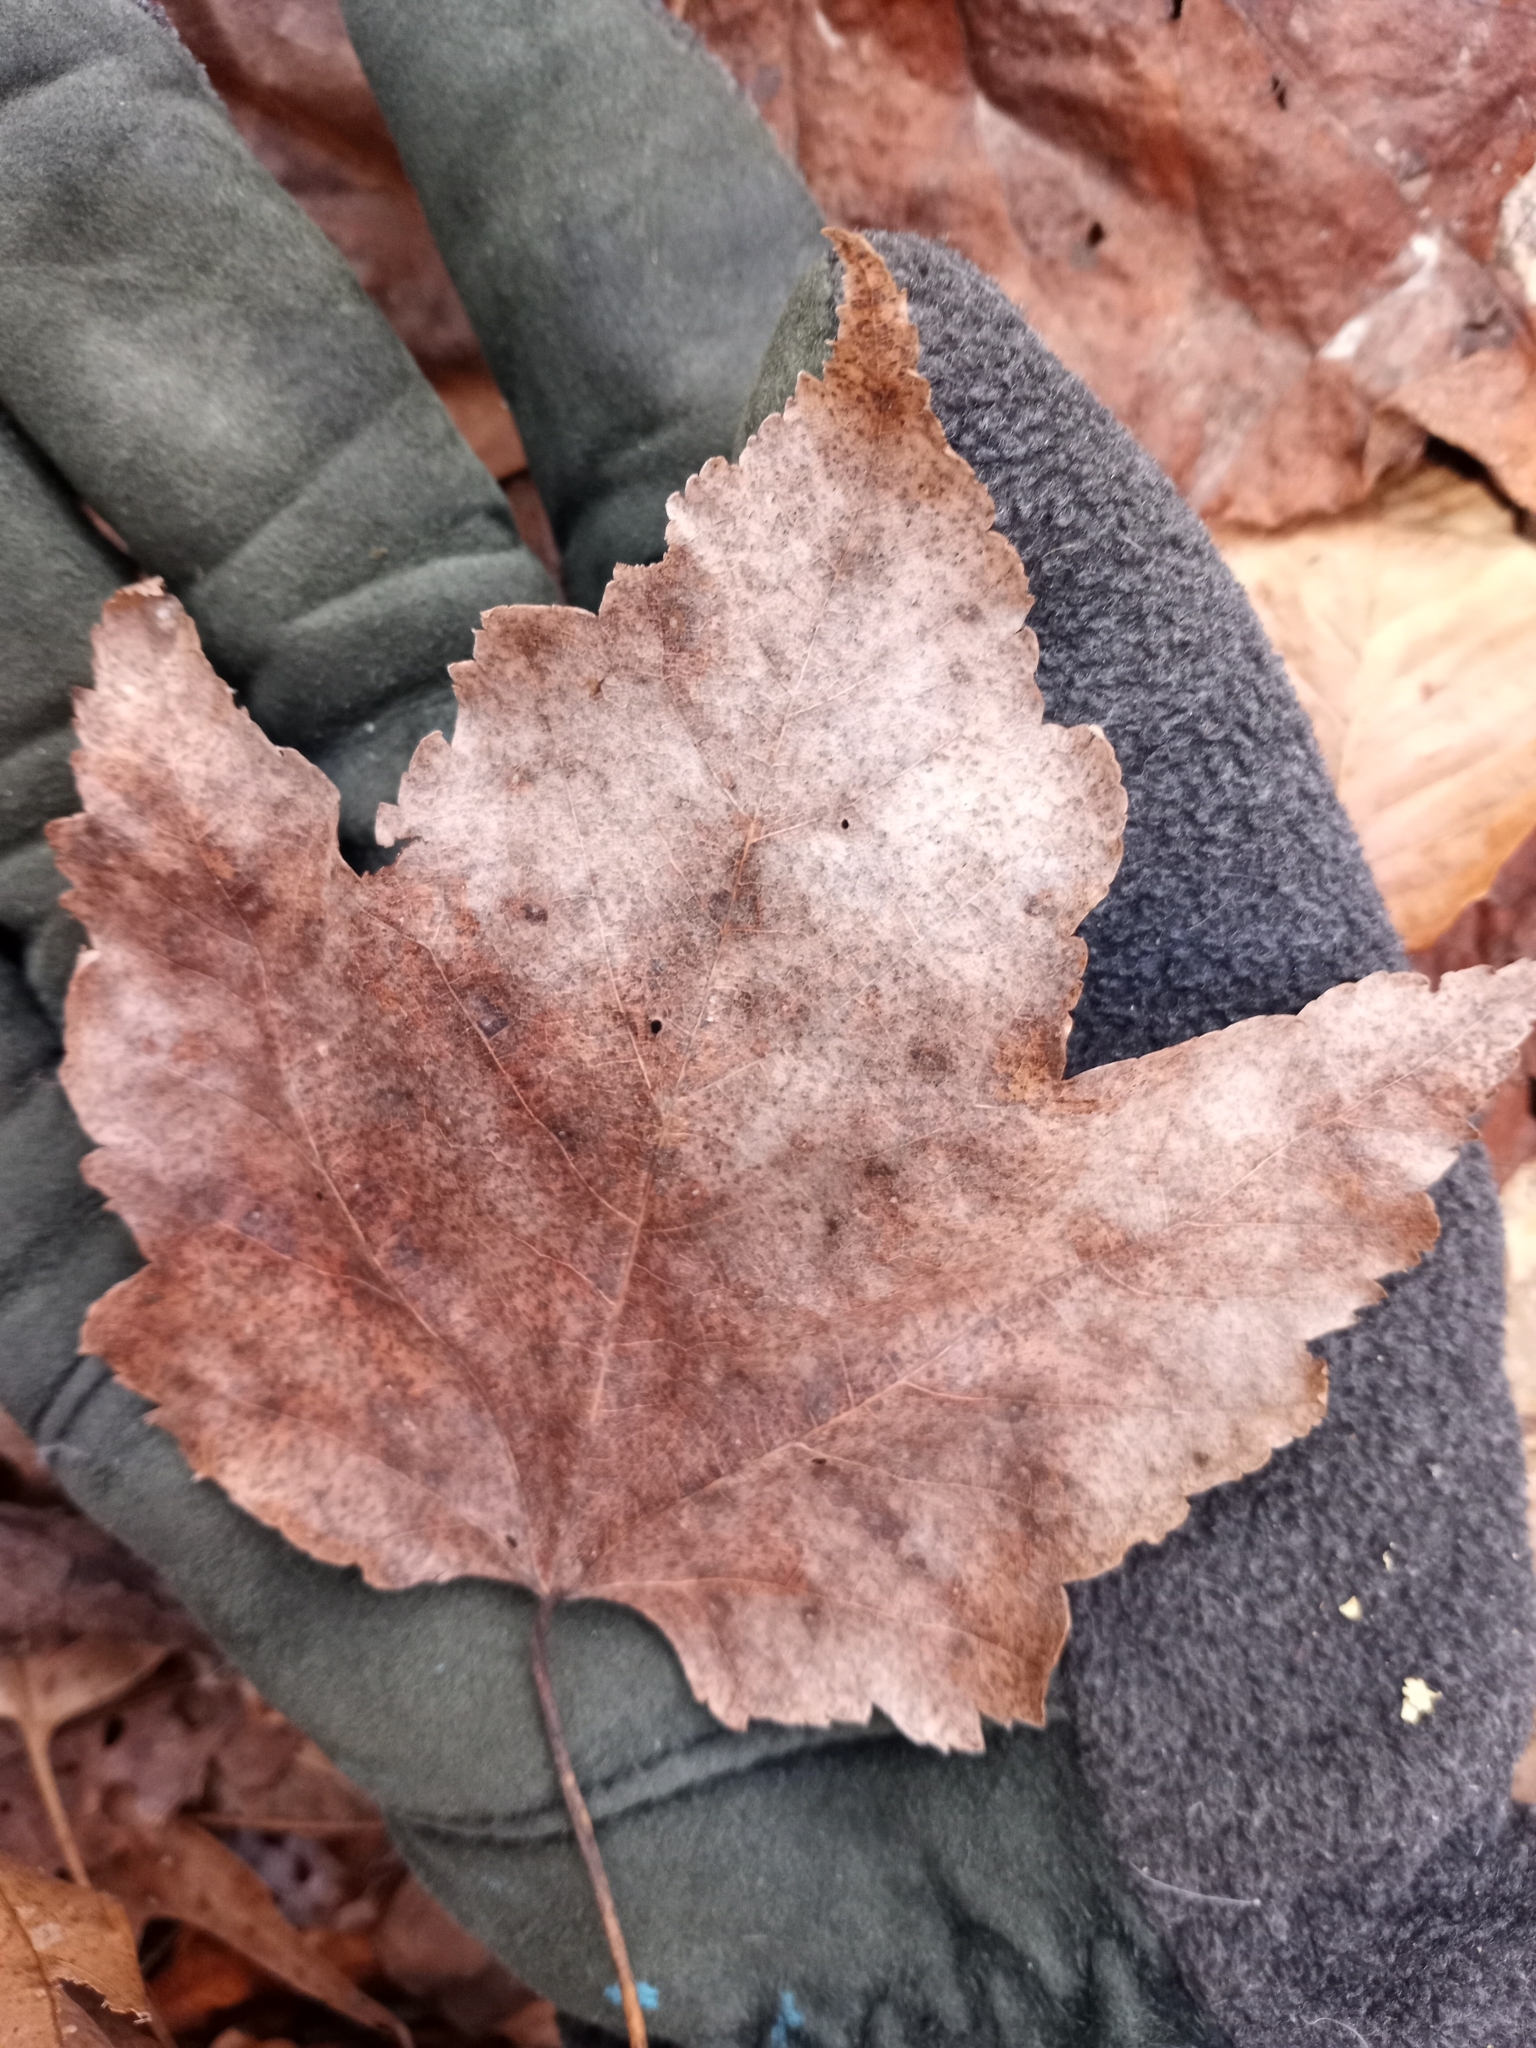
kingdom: Plantae
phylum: Tracheophyta
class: Magnoliopsida
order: Sapindales
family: Sapindaceae
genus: Acer
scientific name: Acer rubrum
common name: Red maple
